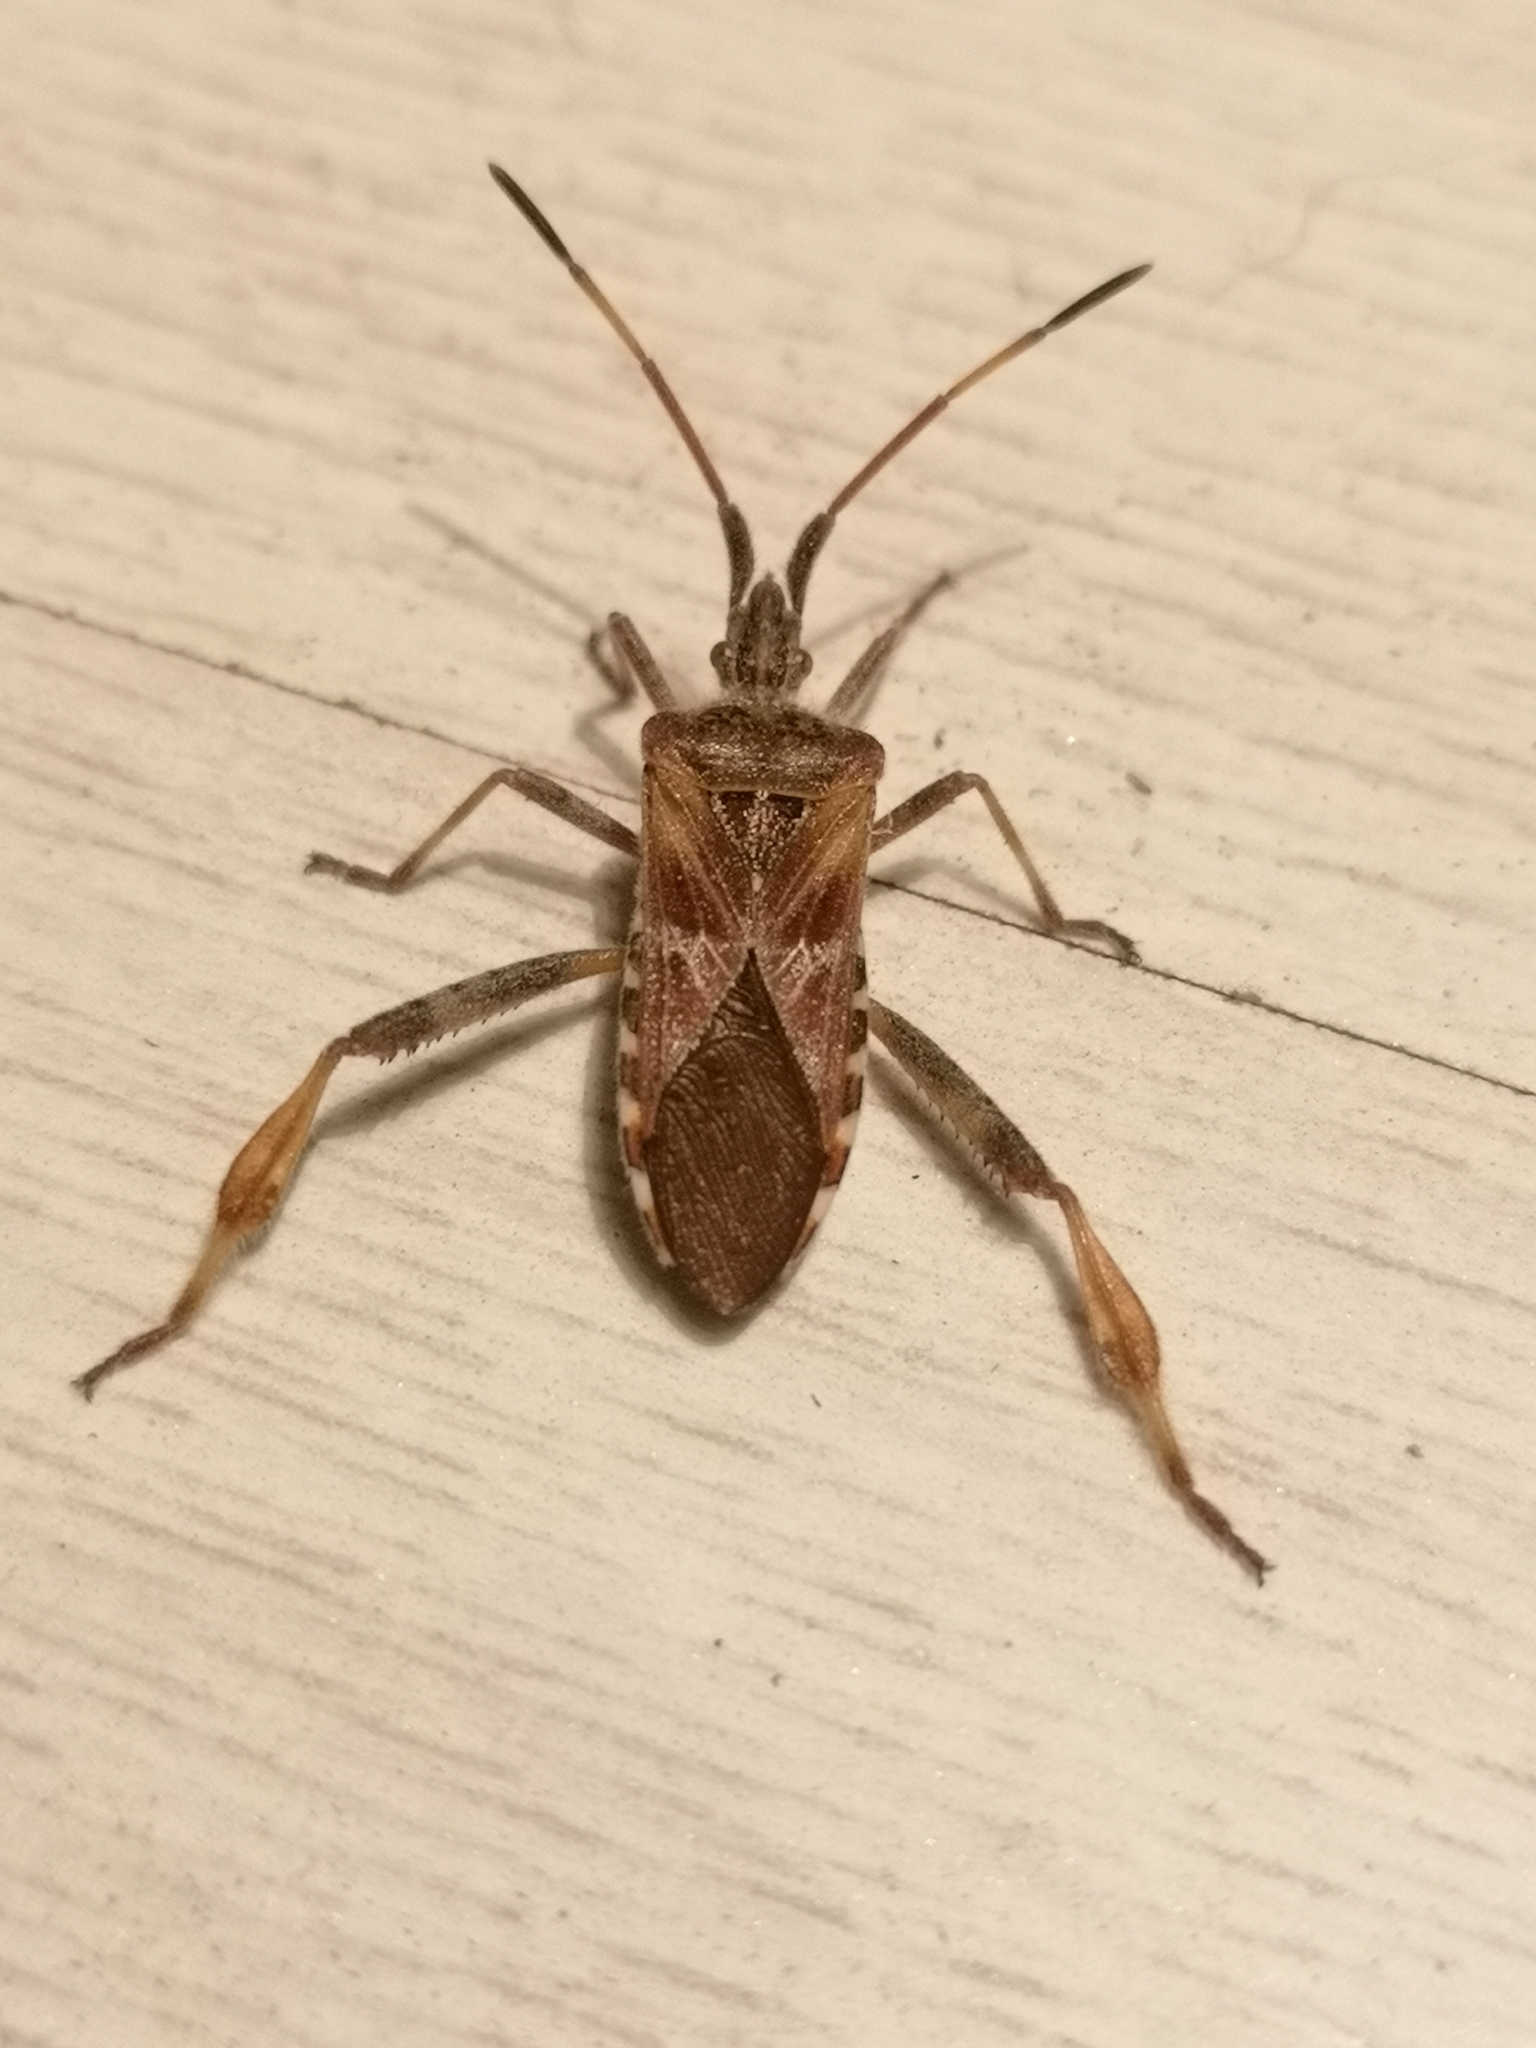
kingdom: Animalia
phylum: Arthropoda
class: Insecta
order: Hemiptera
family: Coreidae
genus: Leptoglossus
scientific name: Leptoglossus occidentalis
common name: Western conifer-seed bug
